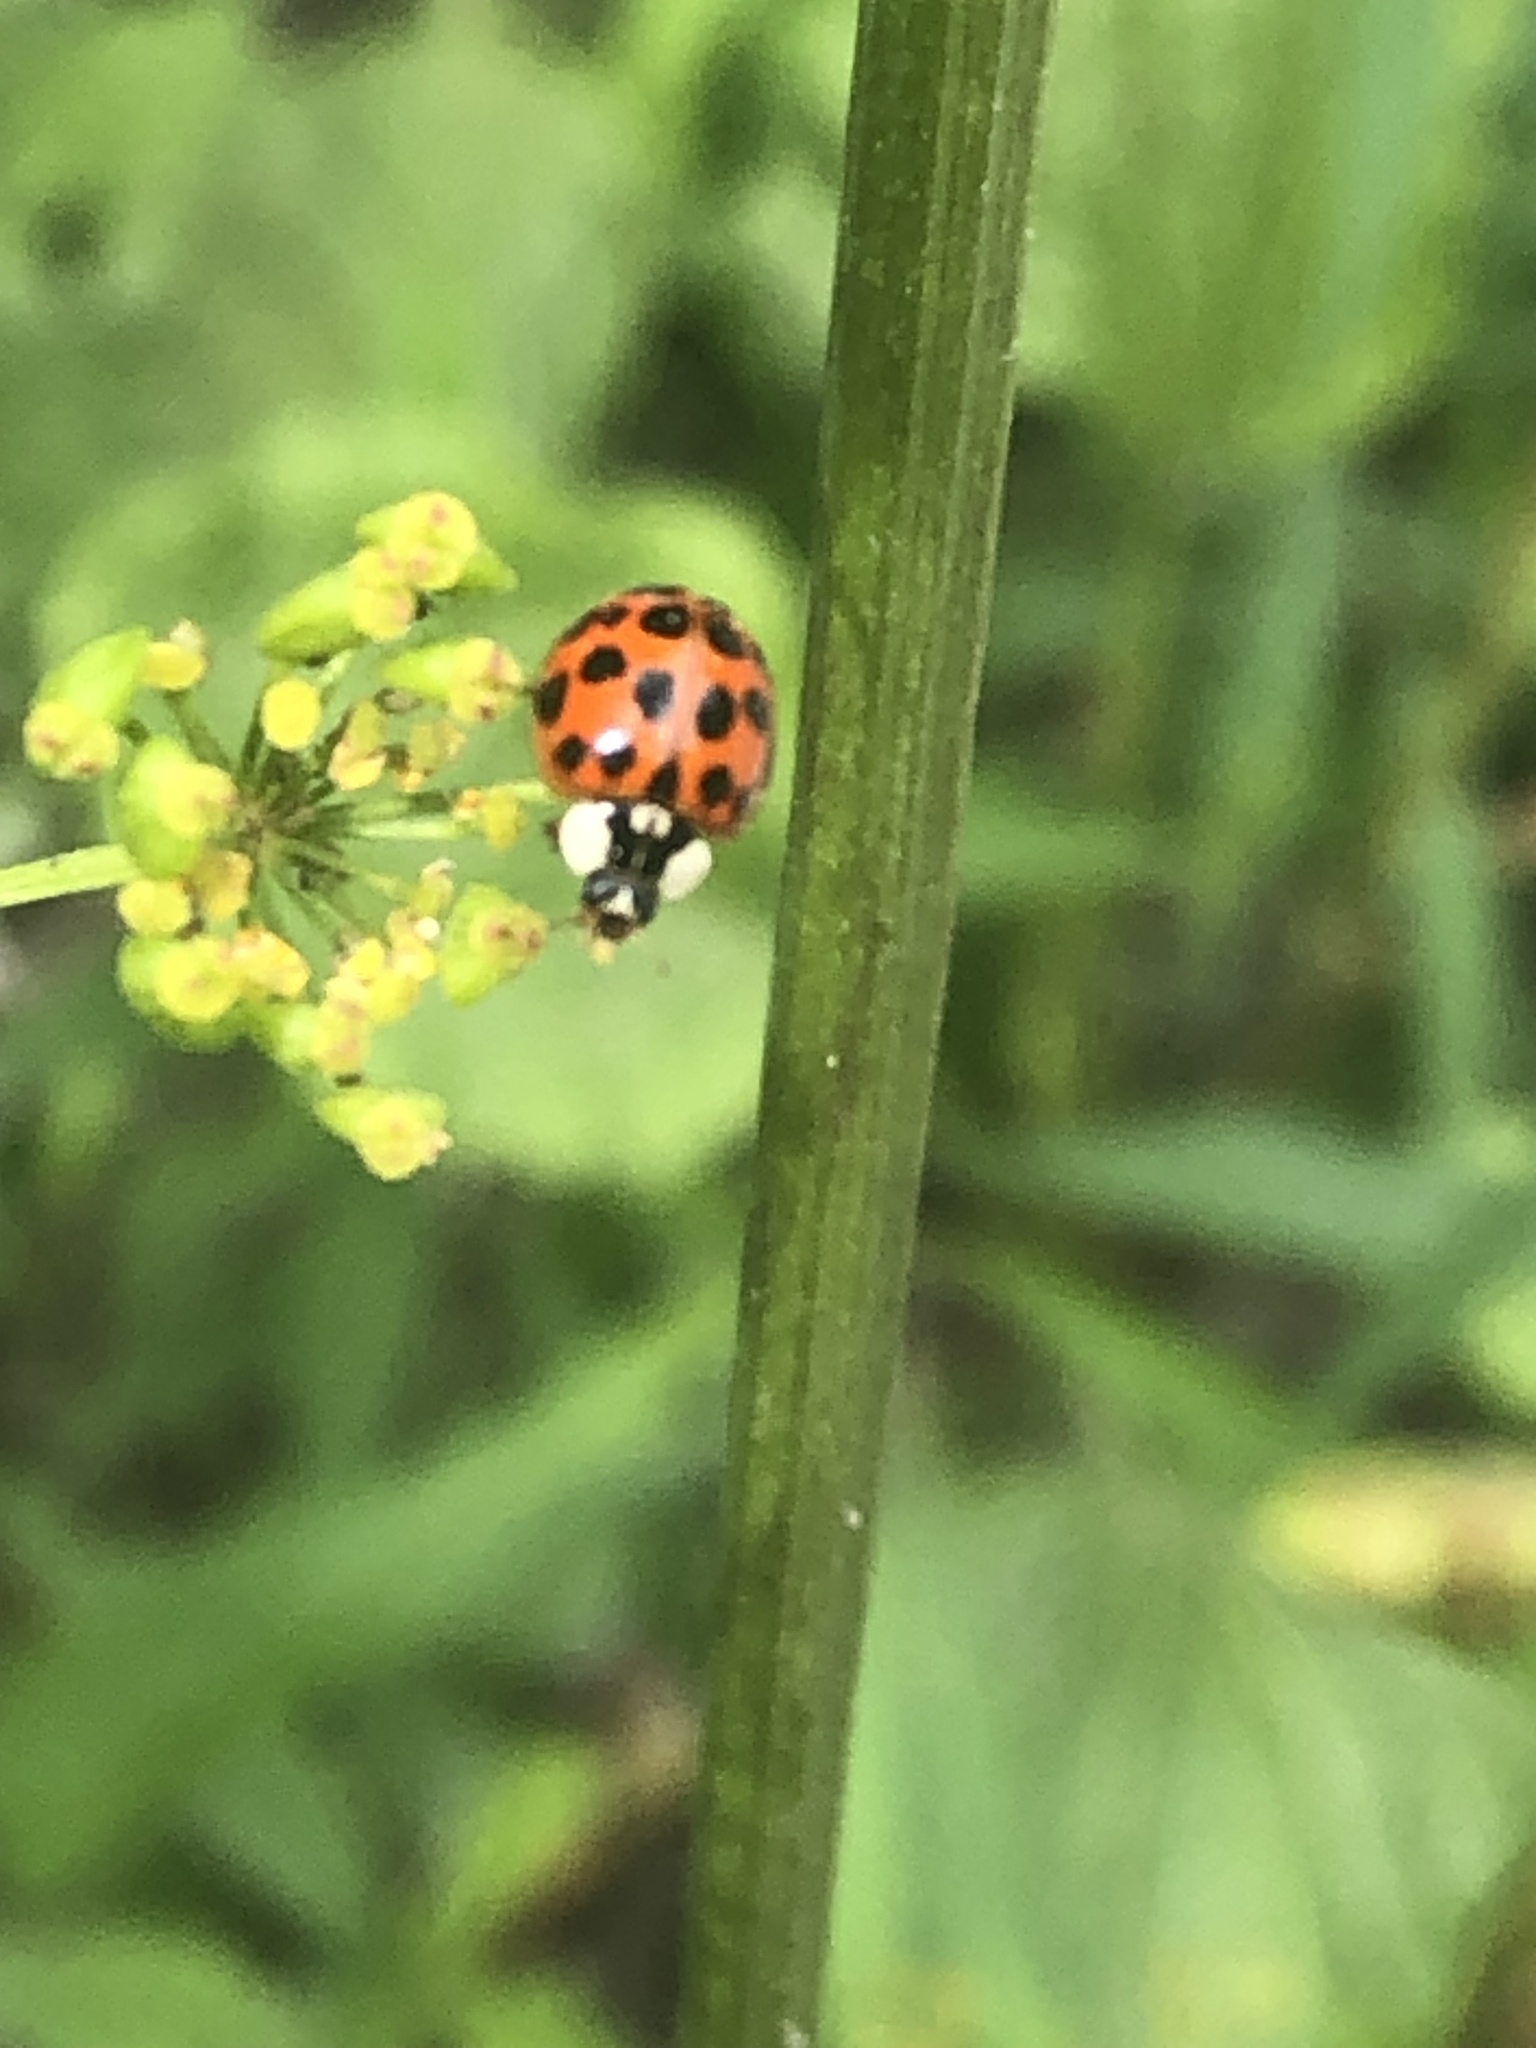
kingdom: Animalia
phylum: Arthropoda
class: Insecta
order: Coleoptera
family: Coccinellidae
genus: Harmonia
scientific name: Harmonia axyridis
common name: Harlequin ladybird
